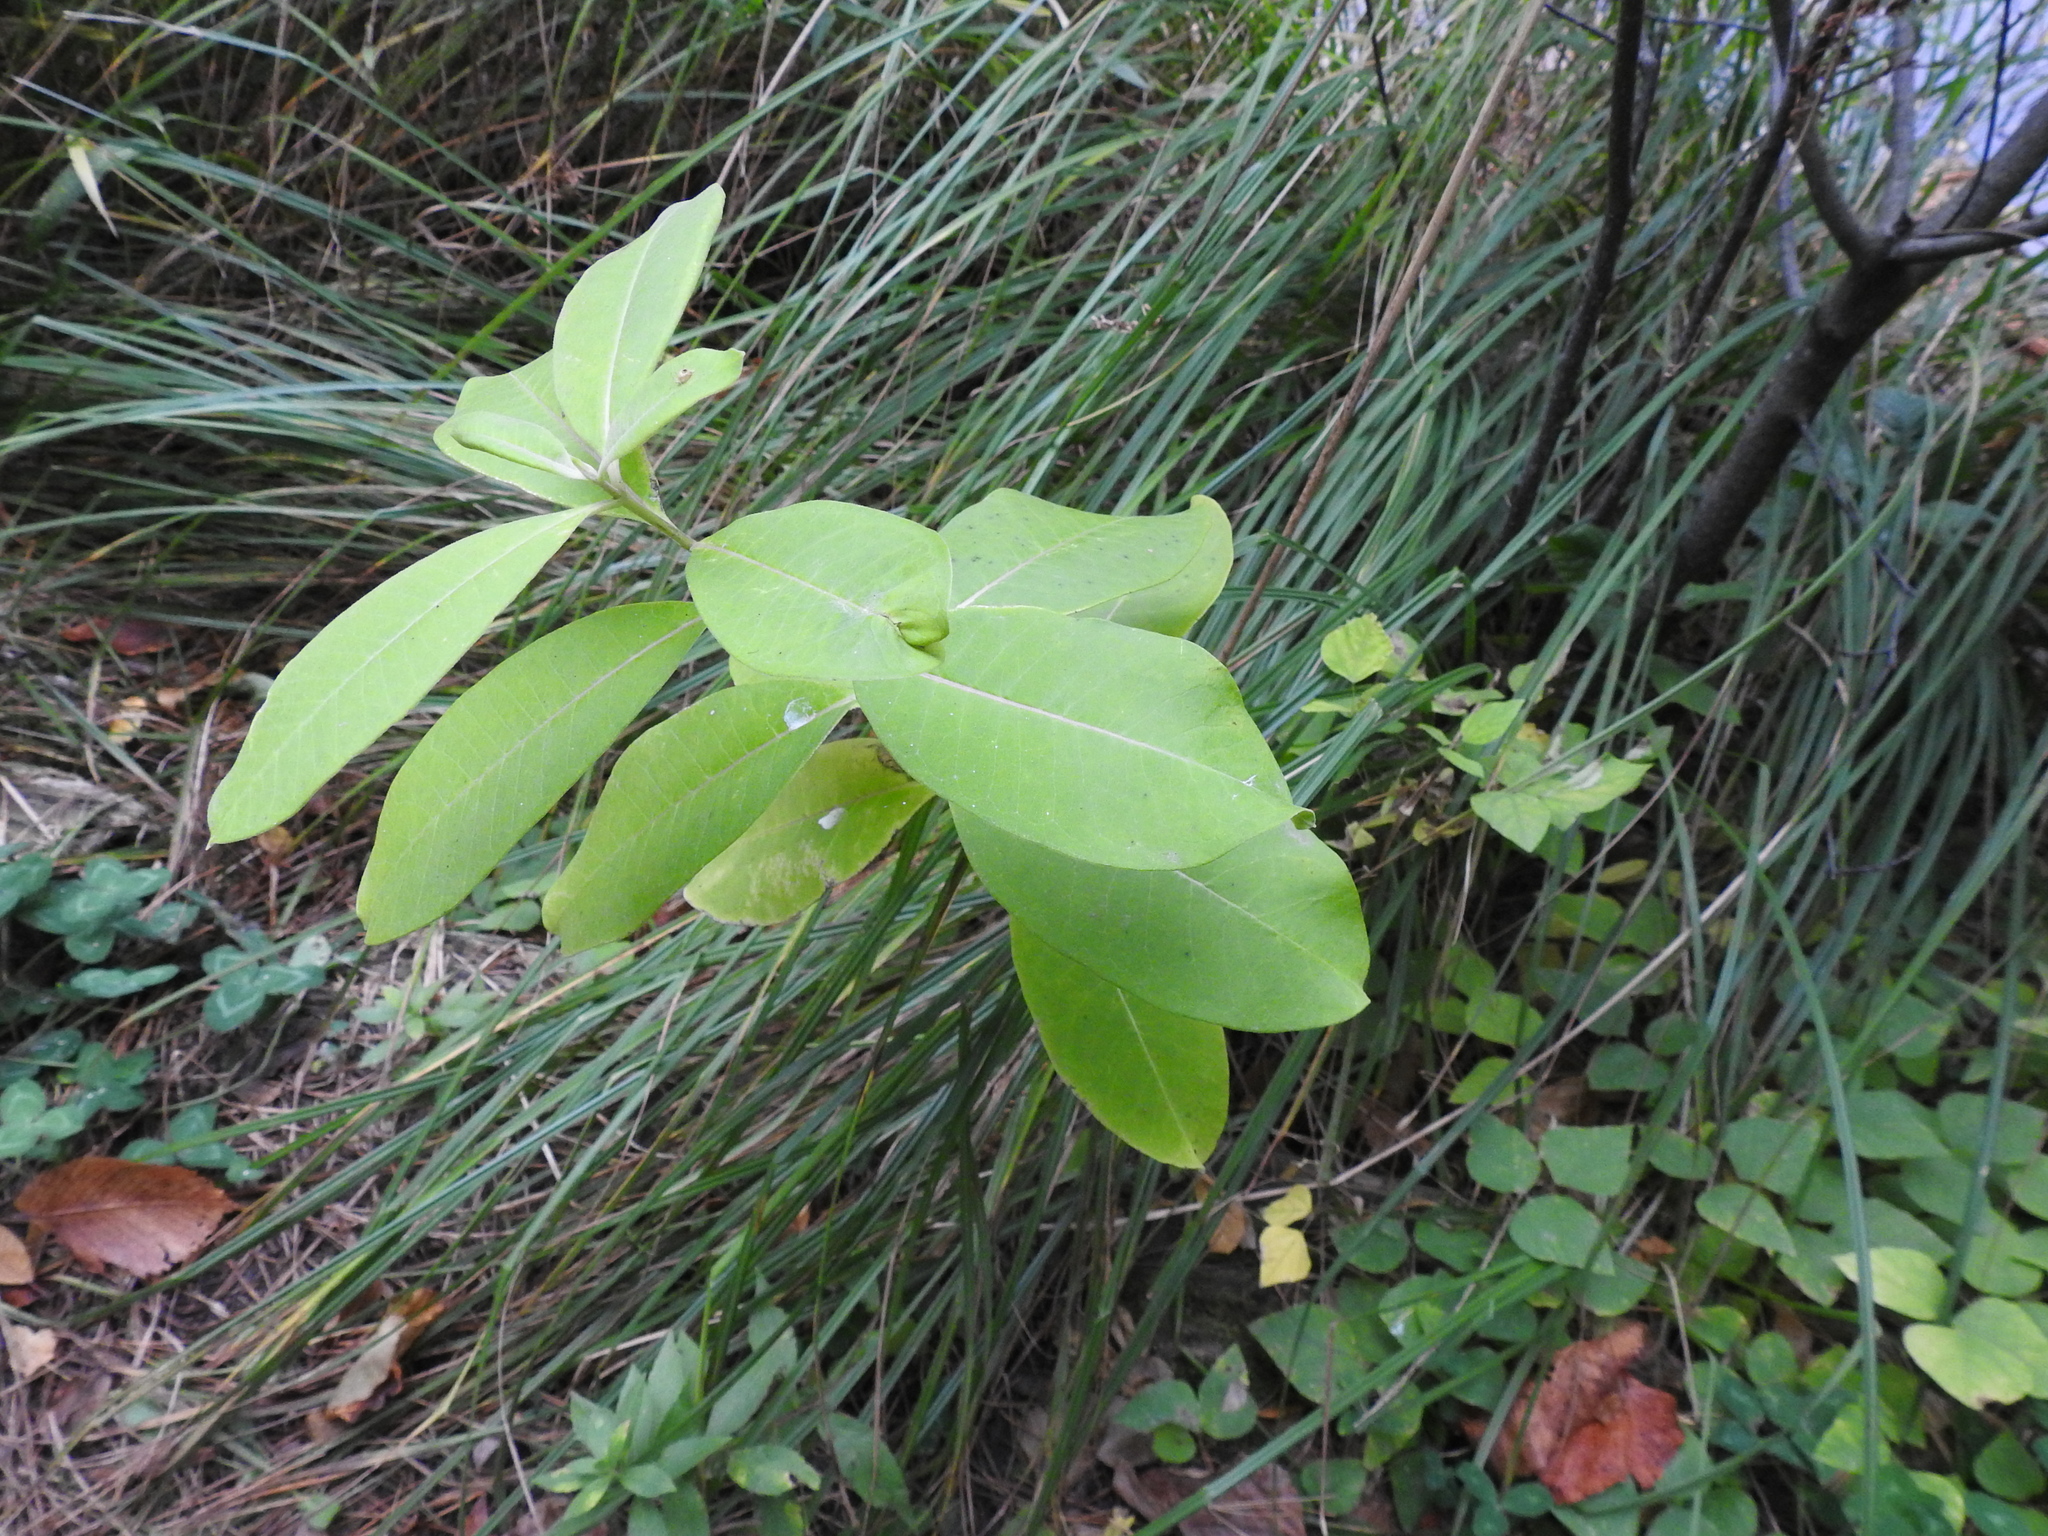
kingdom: Plantae
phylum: Tracheophyta
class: Magnoliopsida
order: Gentianales
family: Apocynaceae
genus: Asclepias
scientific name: Asclepias syriaca
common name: Common milkweed
